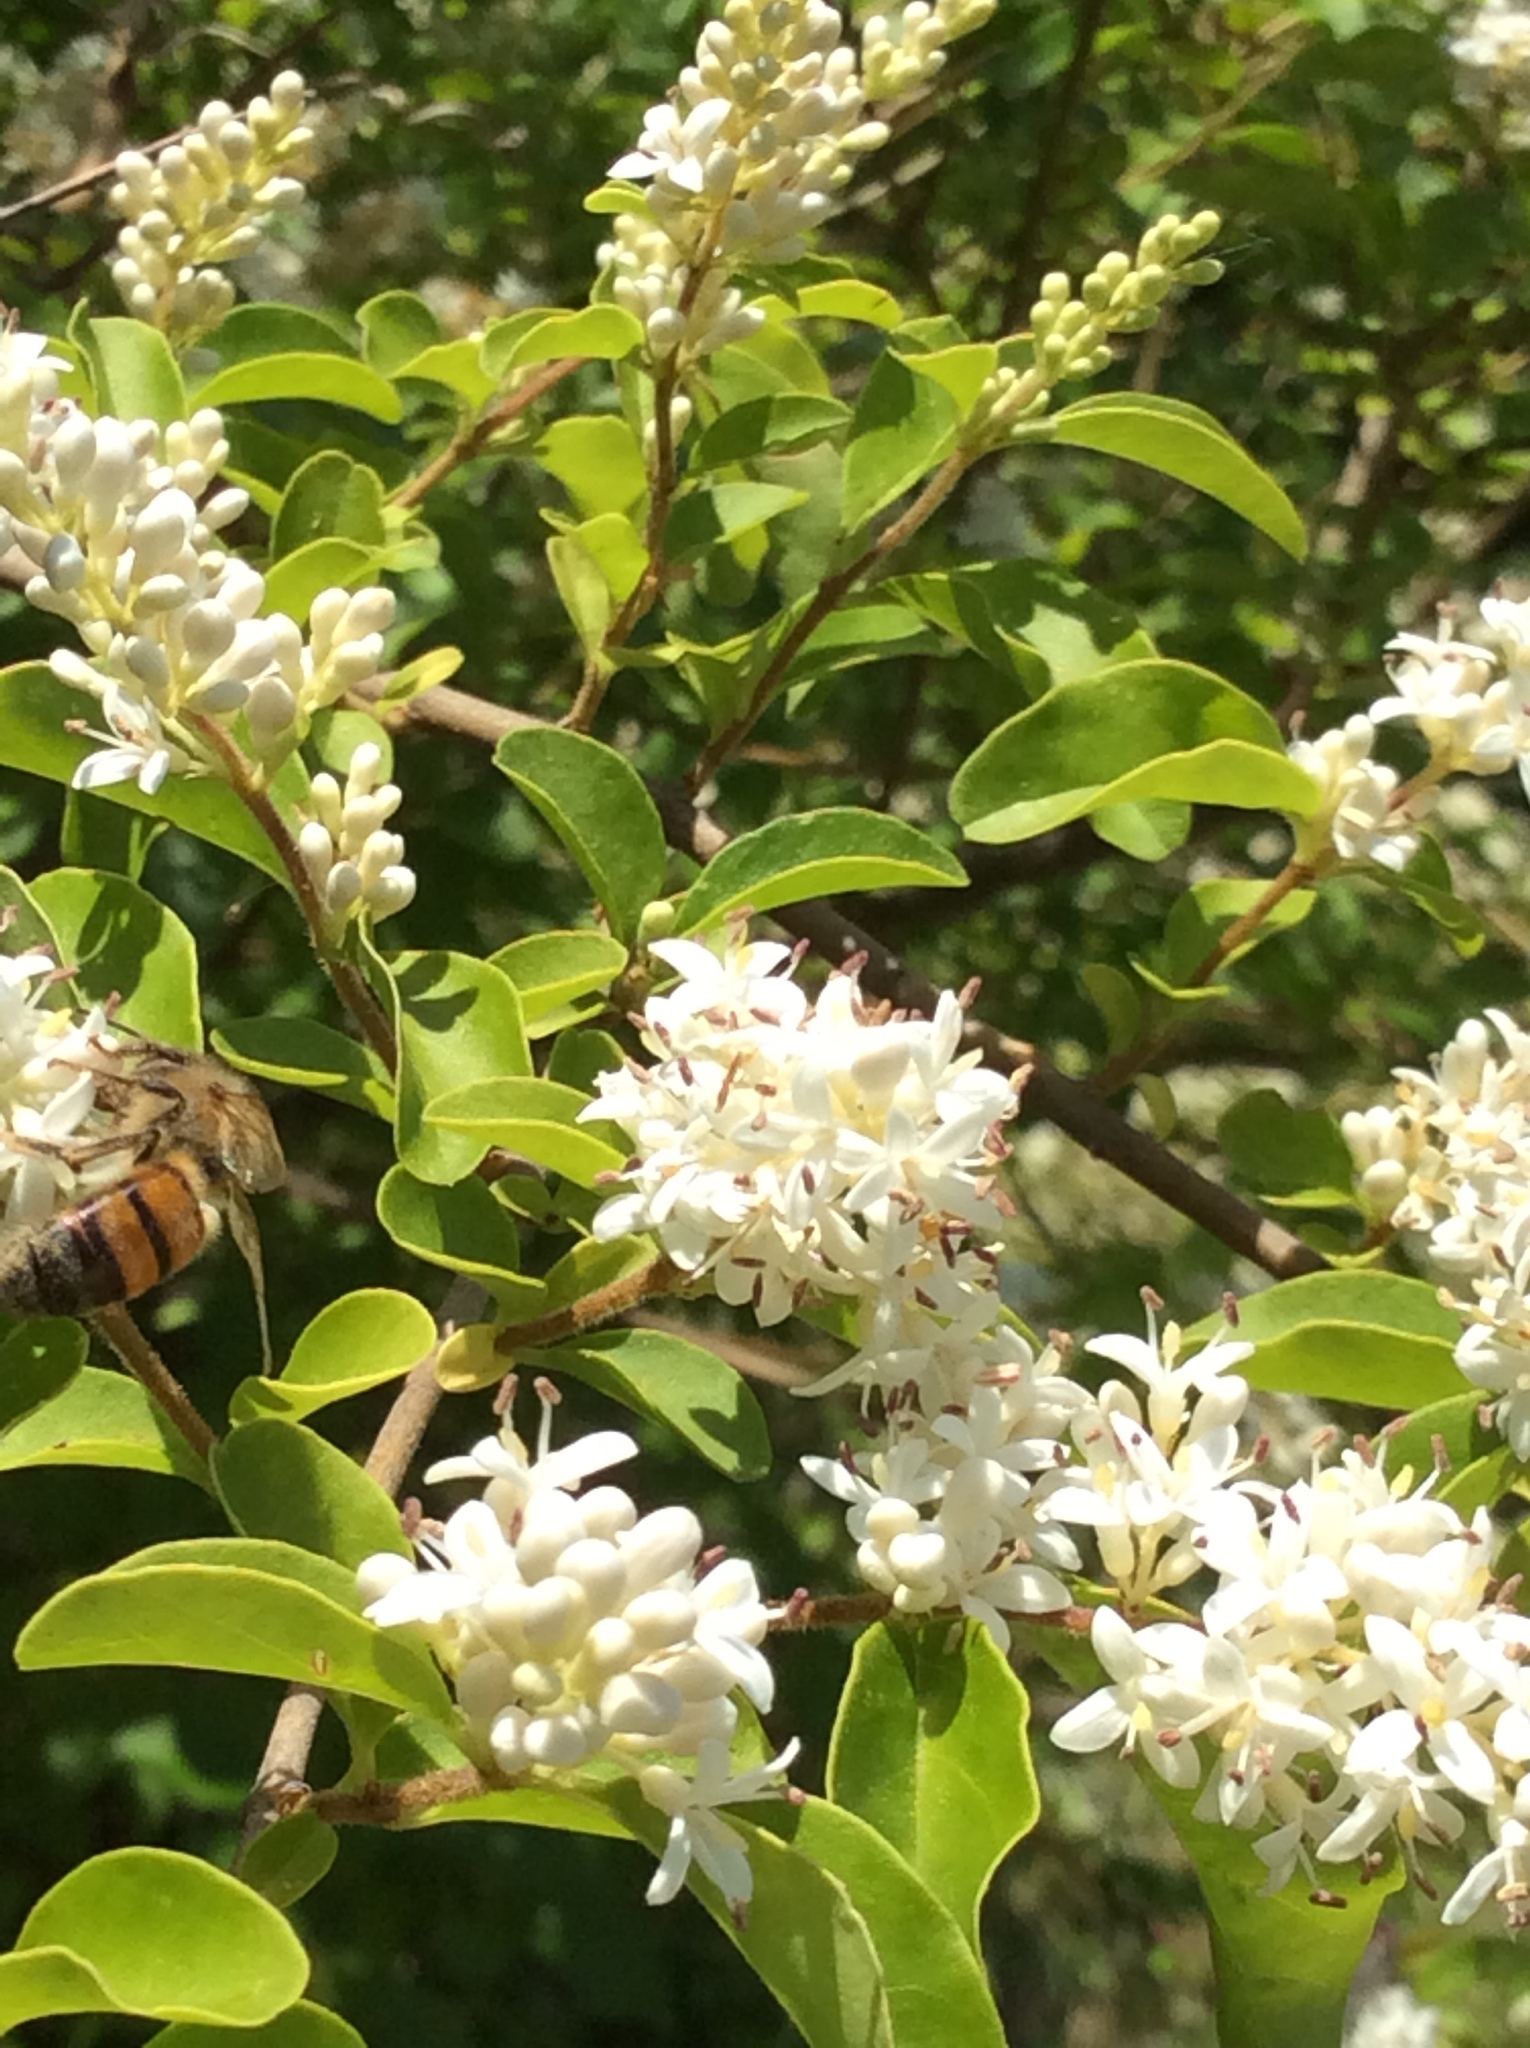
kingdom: Animalia
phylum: Arthropoda
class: Insecta
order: Hymenoptera
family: Apidae
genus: Apis
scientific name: Apis mellifera
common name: Honey bee
